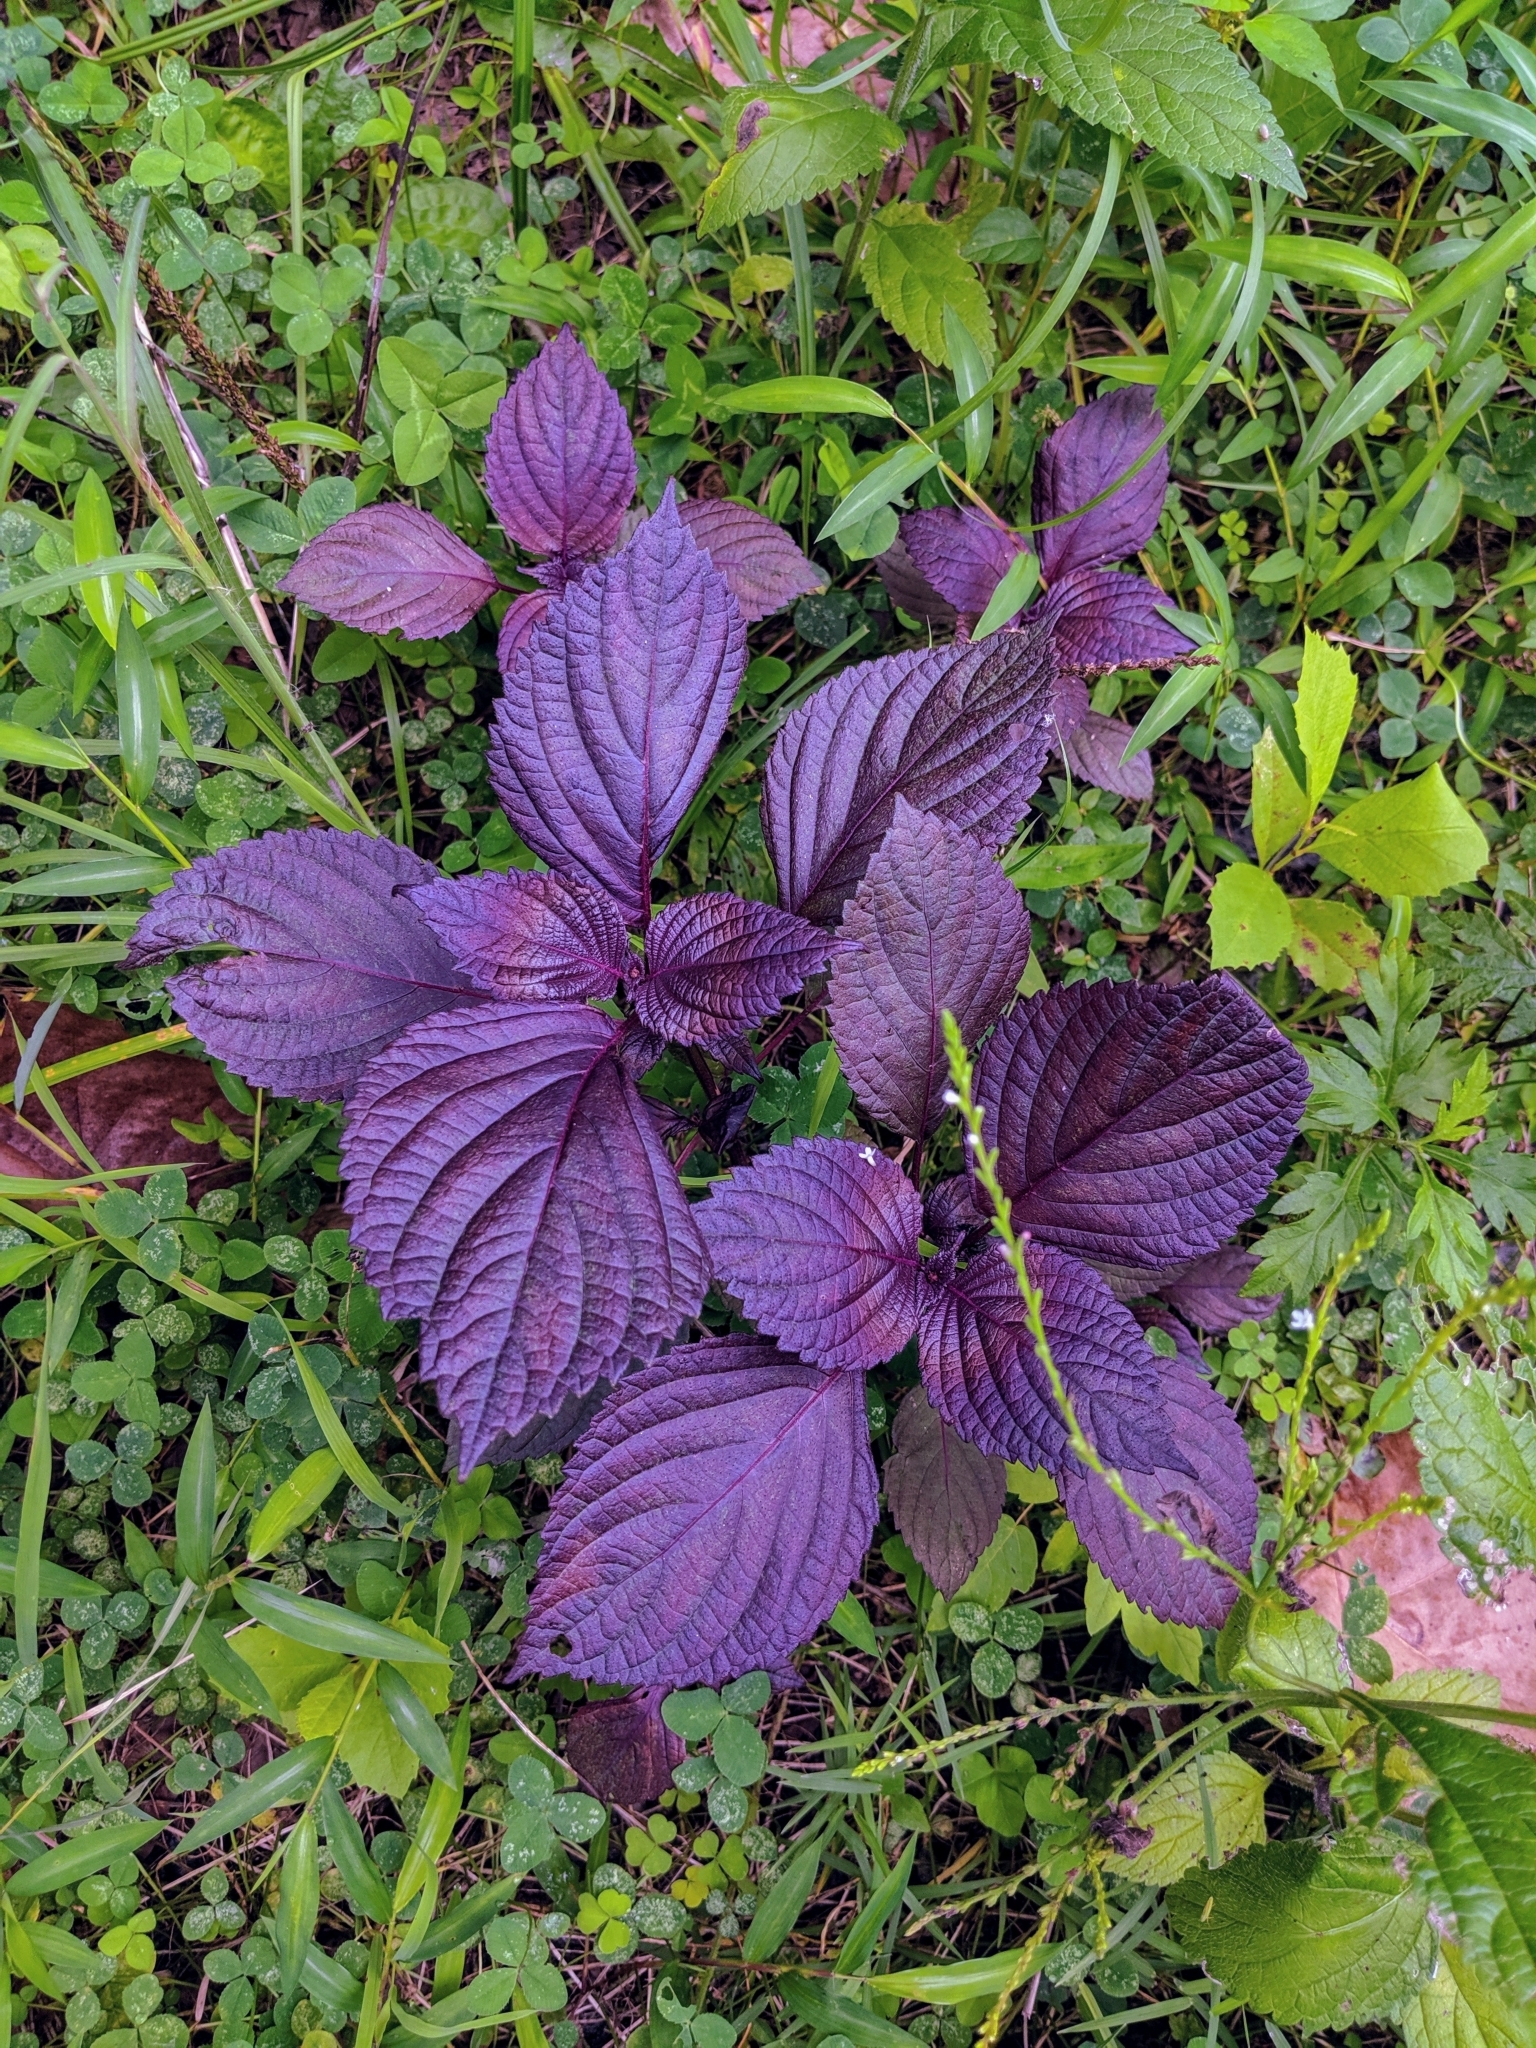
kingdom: Plantae
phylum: Tracheophyta
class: Magnoliopsida
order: Lamiales
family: Lamiaceae
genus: Perilla
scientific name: Perilla frutescens
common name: Perilla
